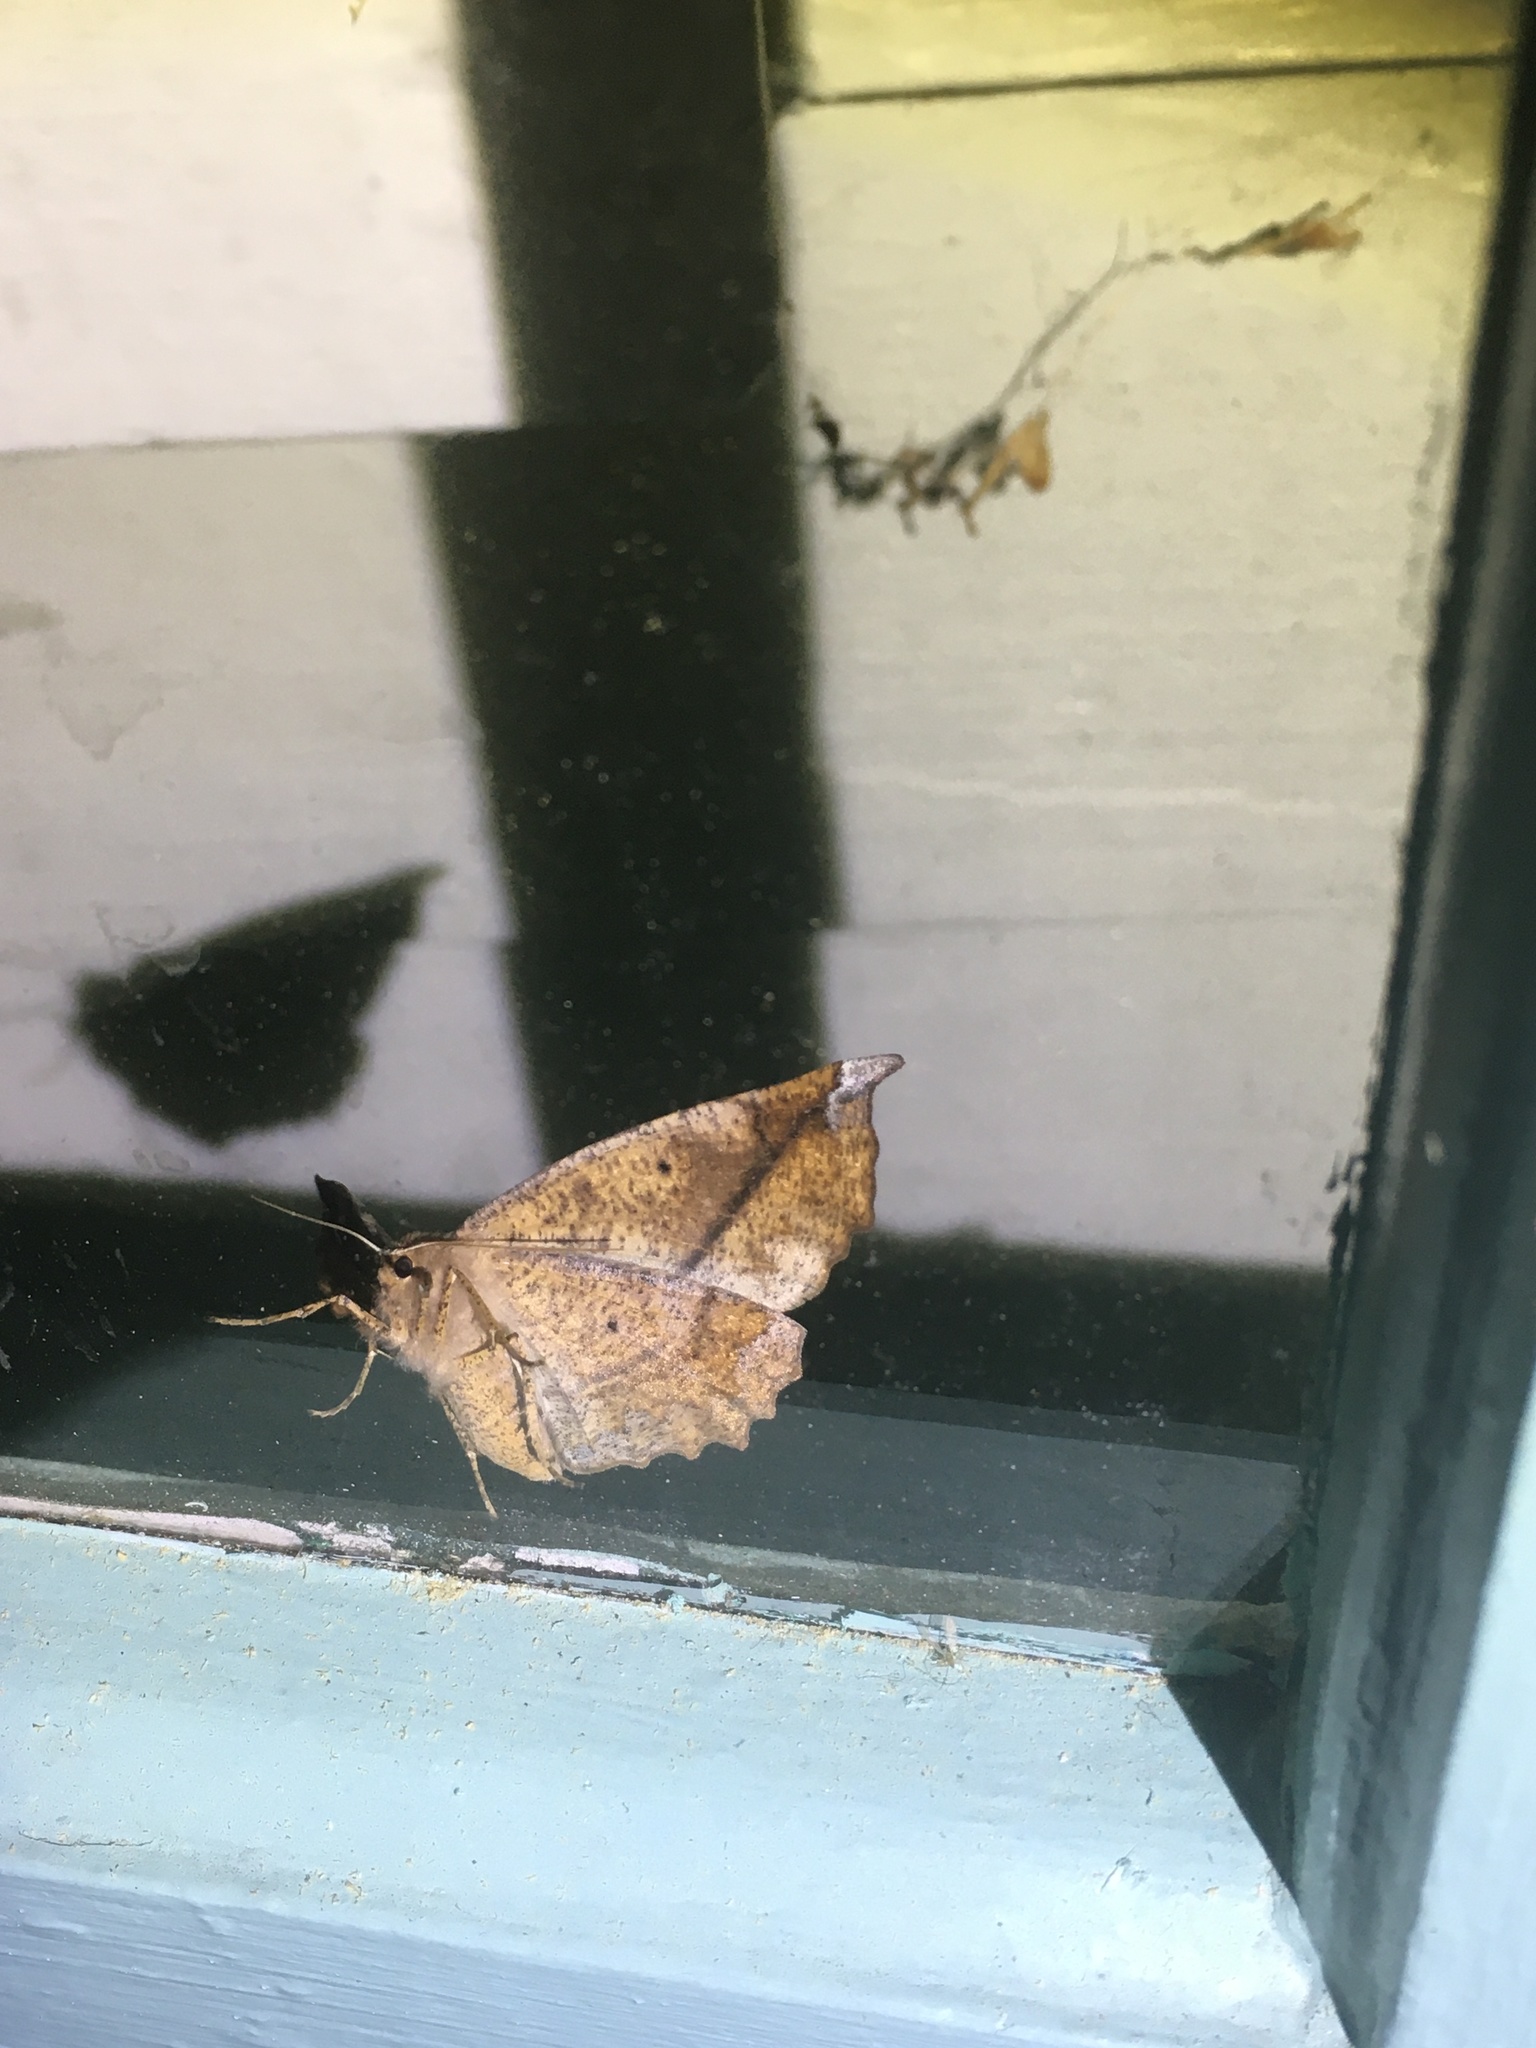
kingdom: Animalia
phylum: Arthropoda
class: Insecta
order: Lepidoptera
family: Geometridae
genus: Eutrapela
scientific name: Eutrapela clemataria
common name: Curved-toothed geometer
